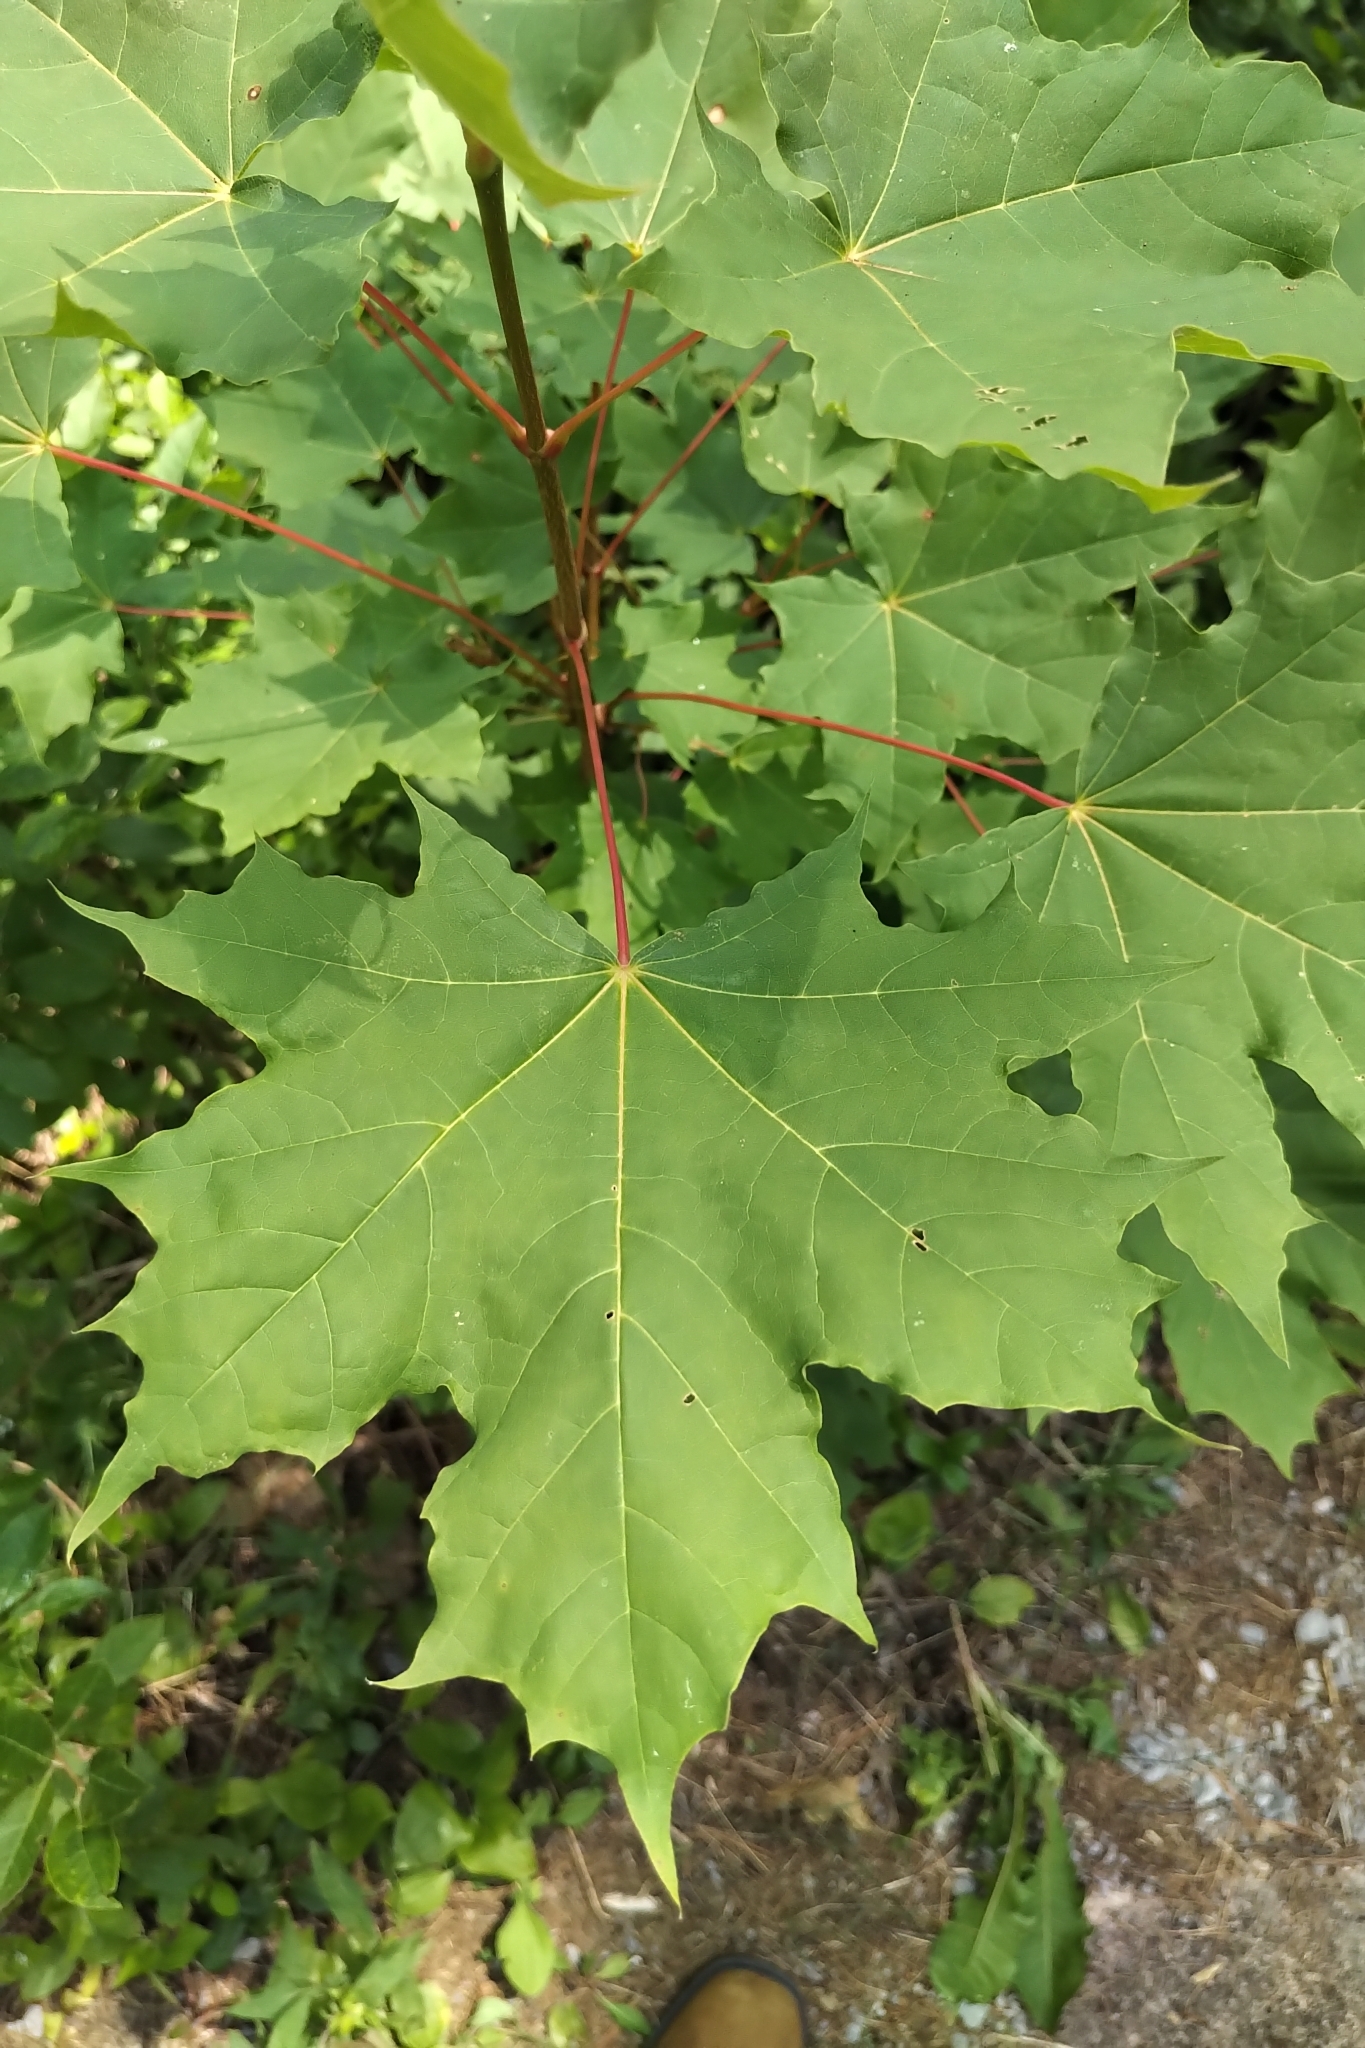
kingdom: Plantae
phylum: Tracheophyta
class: Magnoliopsida
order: Sapindales
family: Sapindaceae
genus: Acer
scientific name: Acer platanoides
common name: Norway maple
